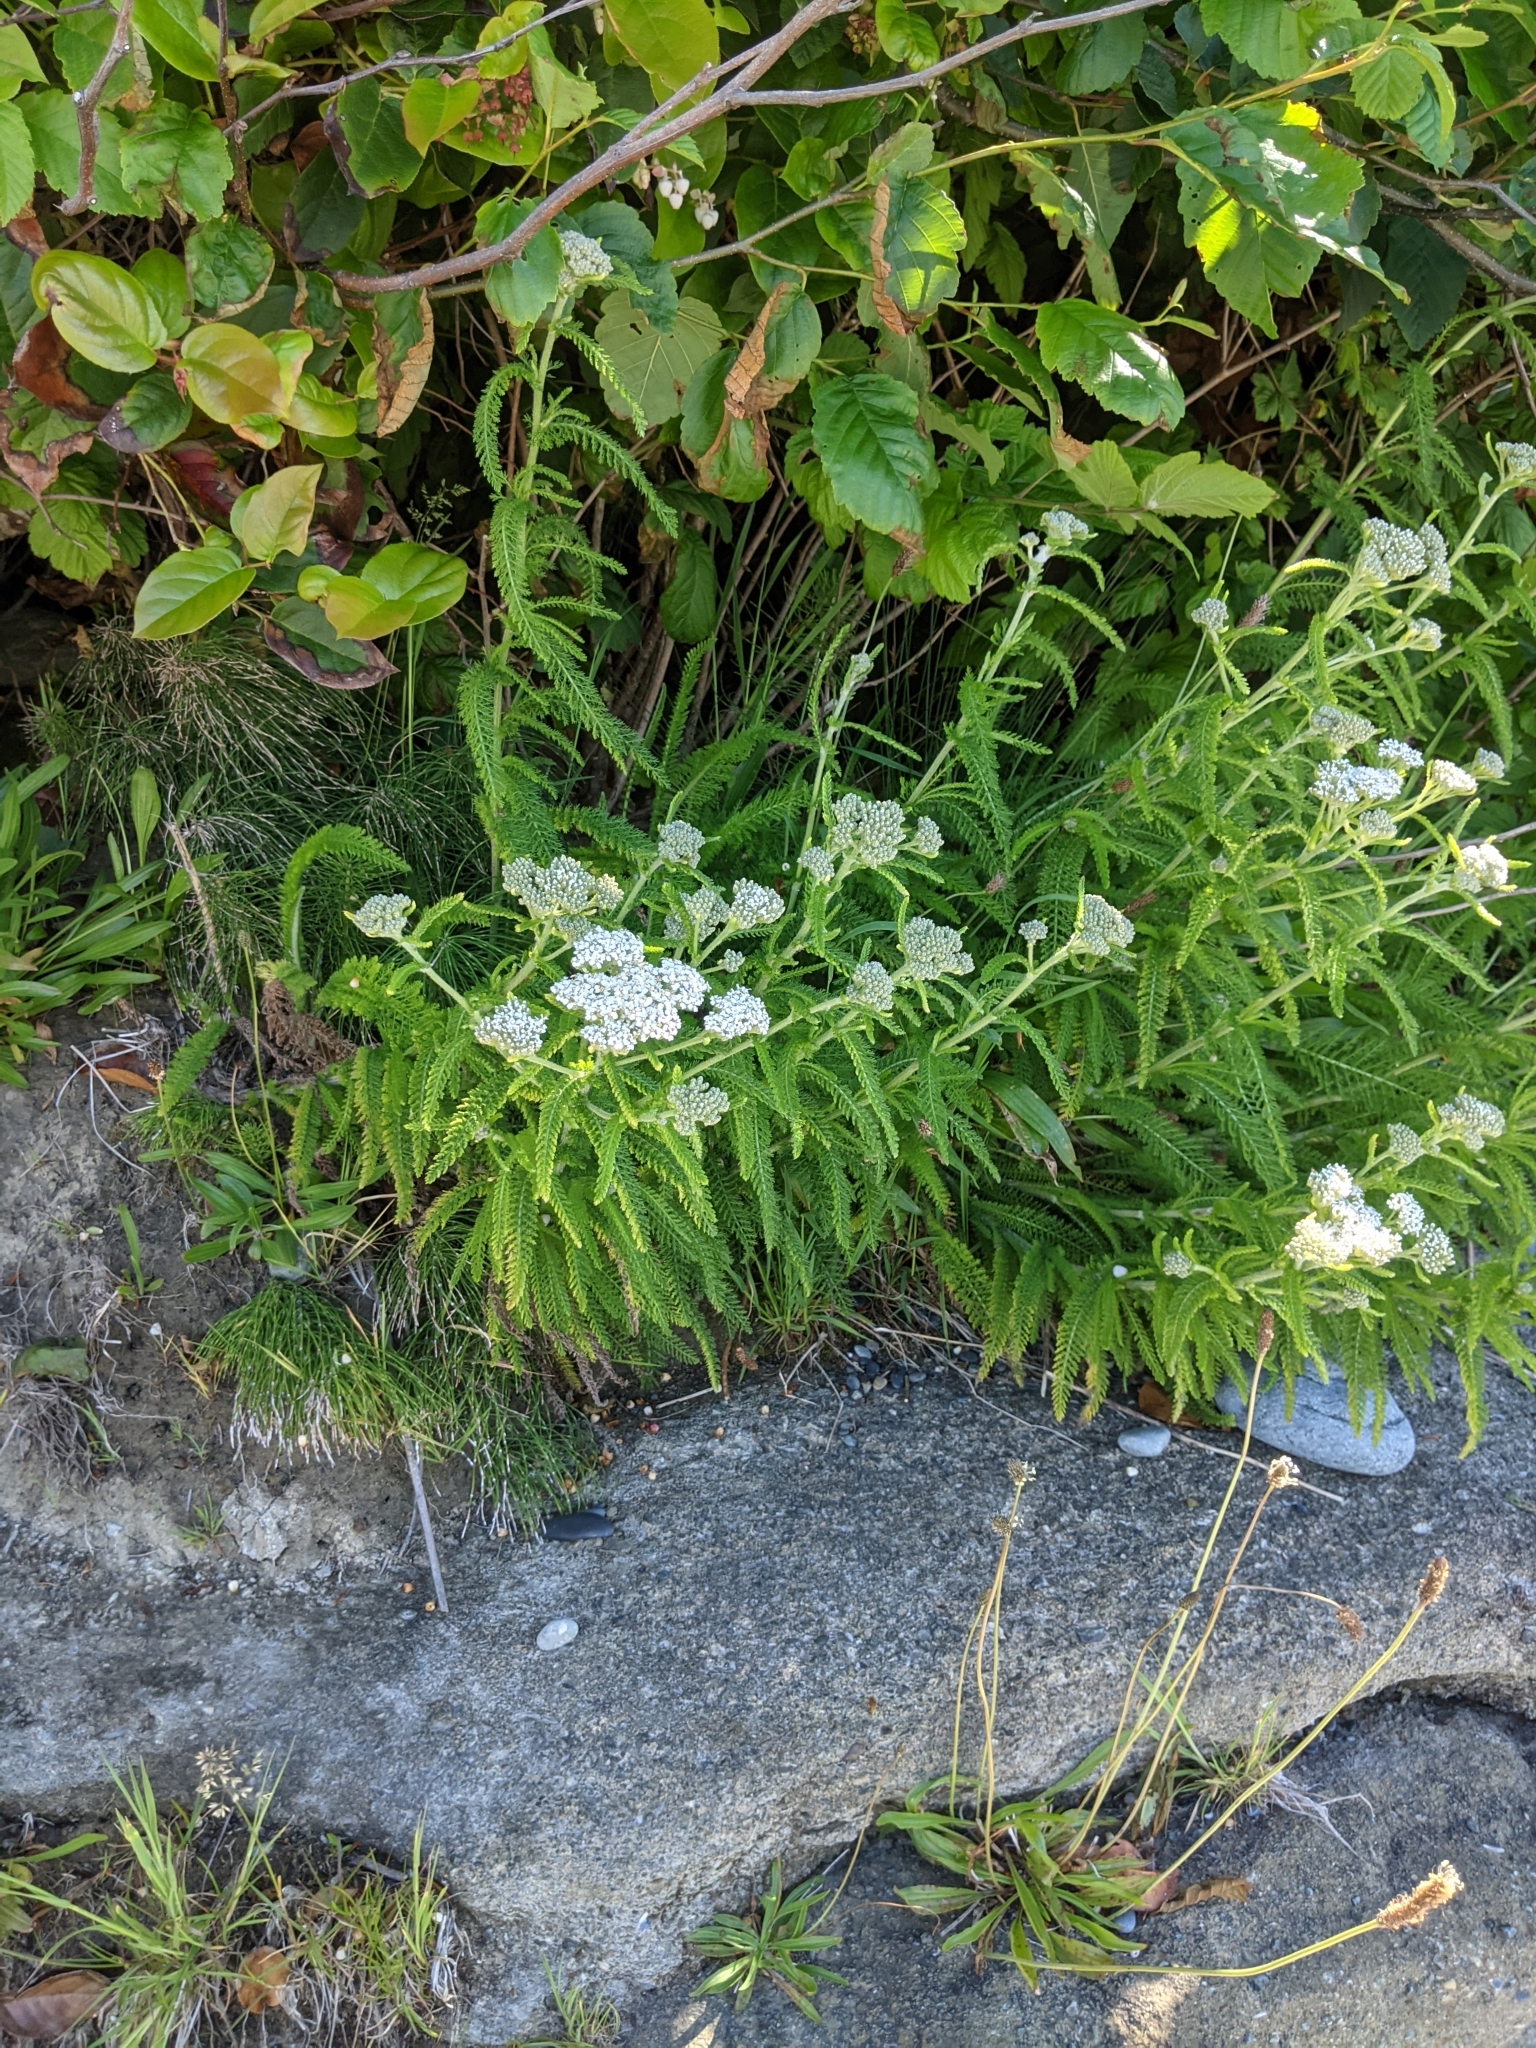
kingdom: Plantae
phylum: Tracheophyta
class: Magnoliopsida
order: Asterales
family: Asteraceae
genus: Achillea
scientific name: Achillea millefolium
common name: Yarrow
